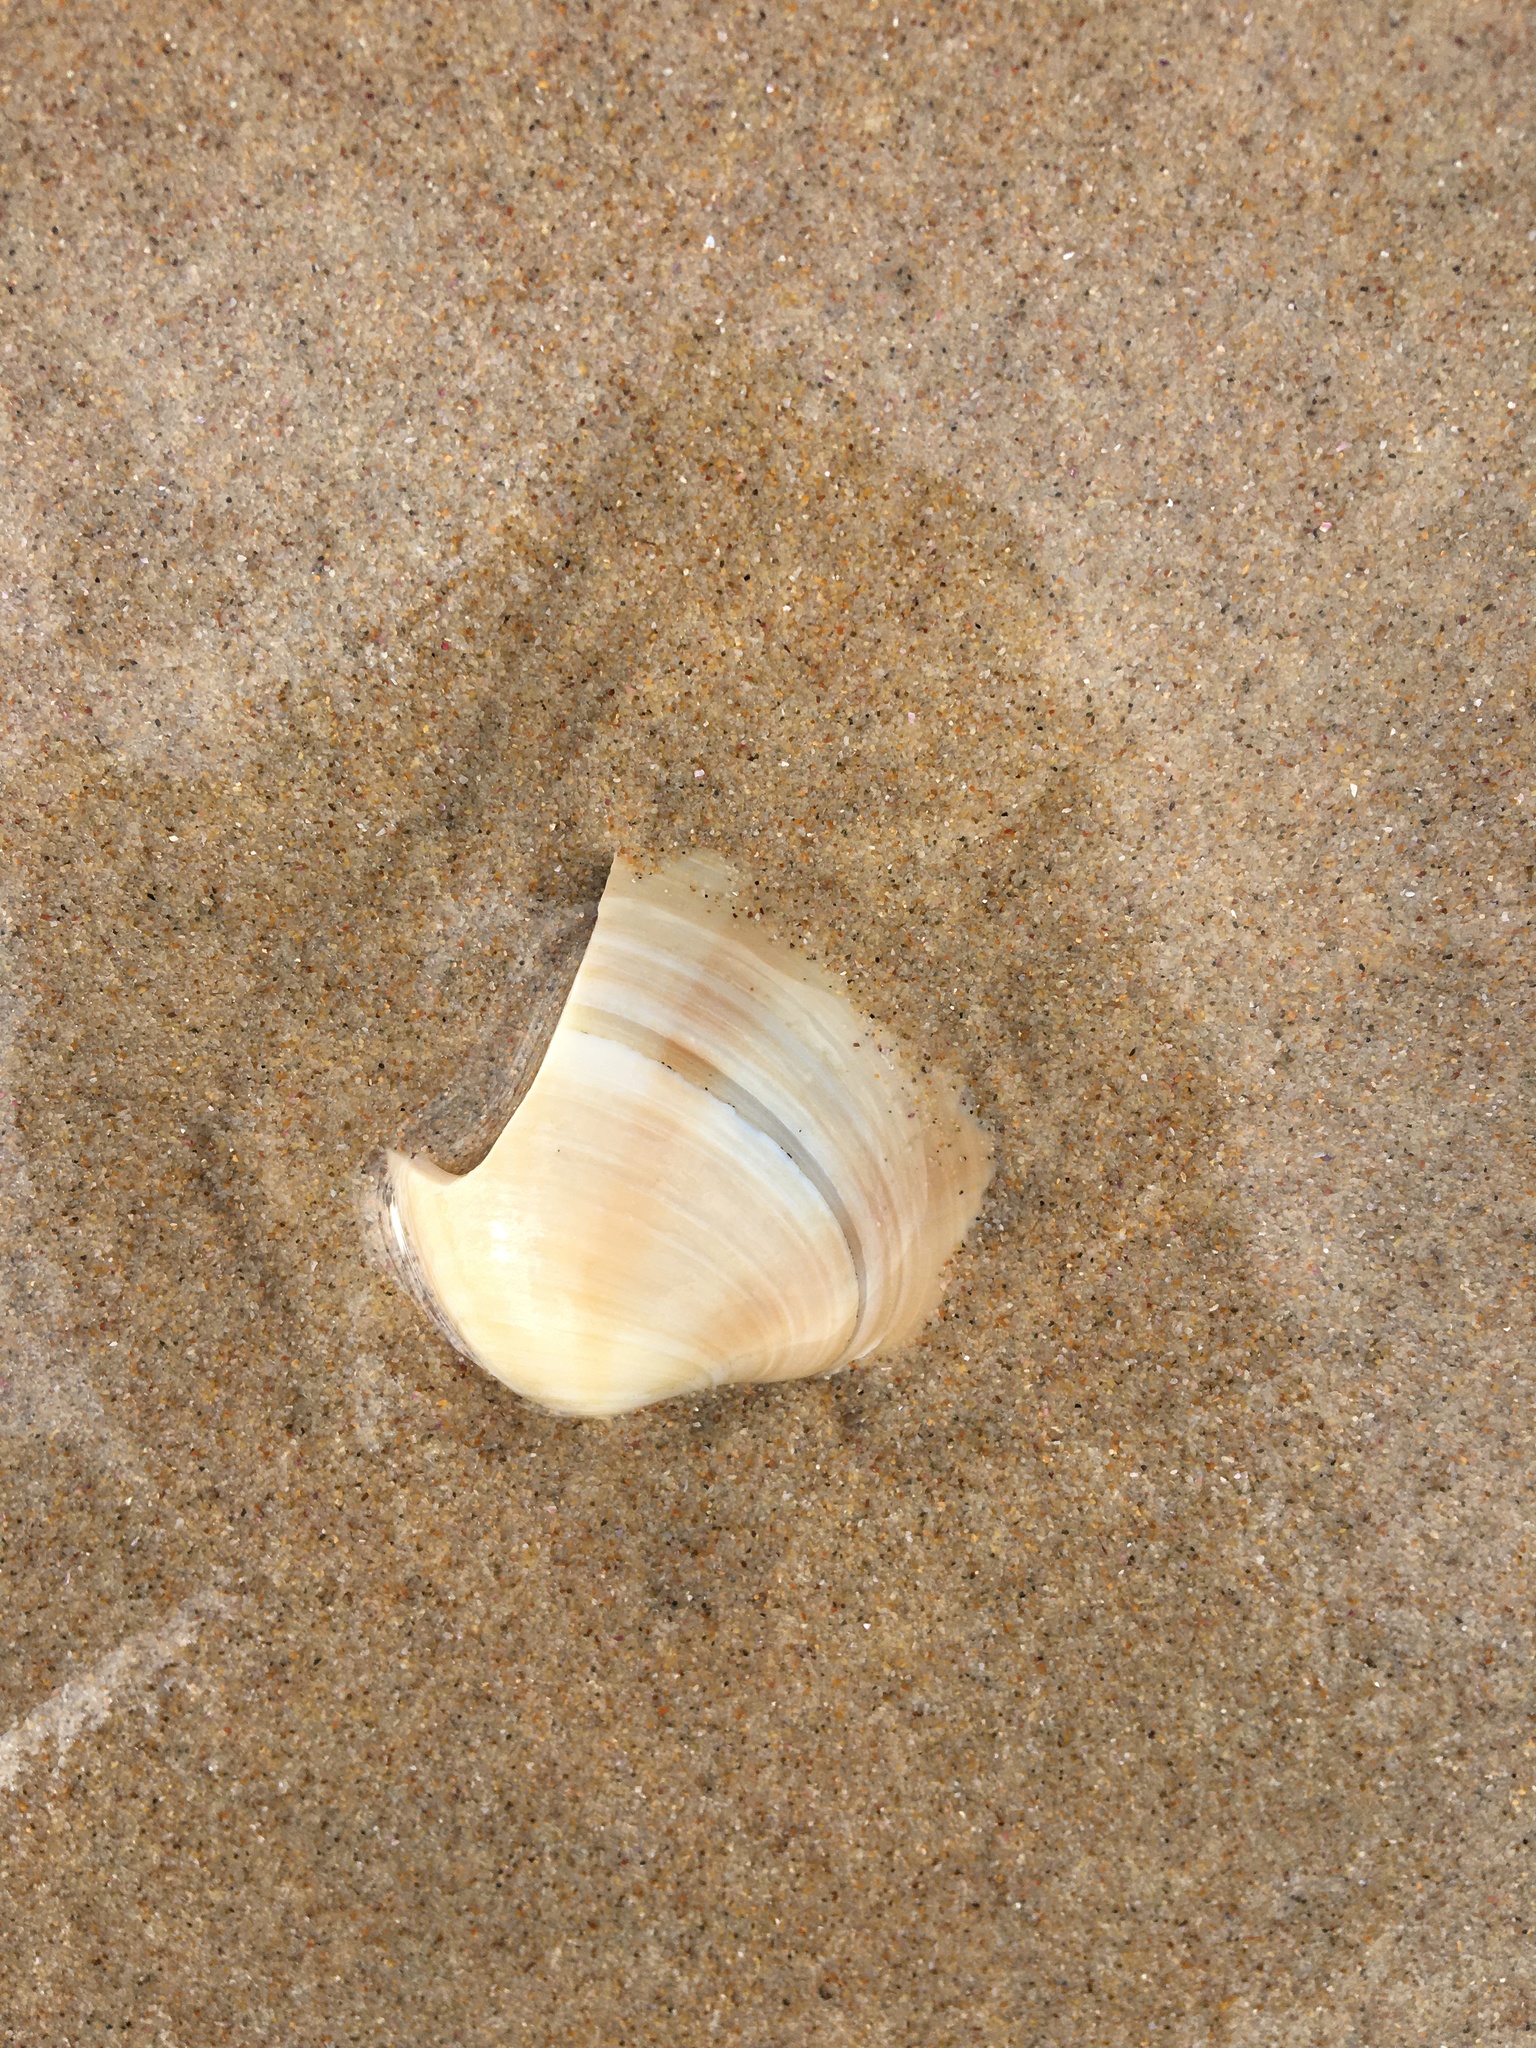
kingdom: Animalia
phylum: Mollusca
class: Bivalvia
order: Venerida
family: Veneridae
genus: Bassina
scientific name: Bassina pachyphylla
